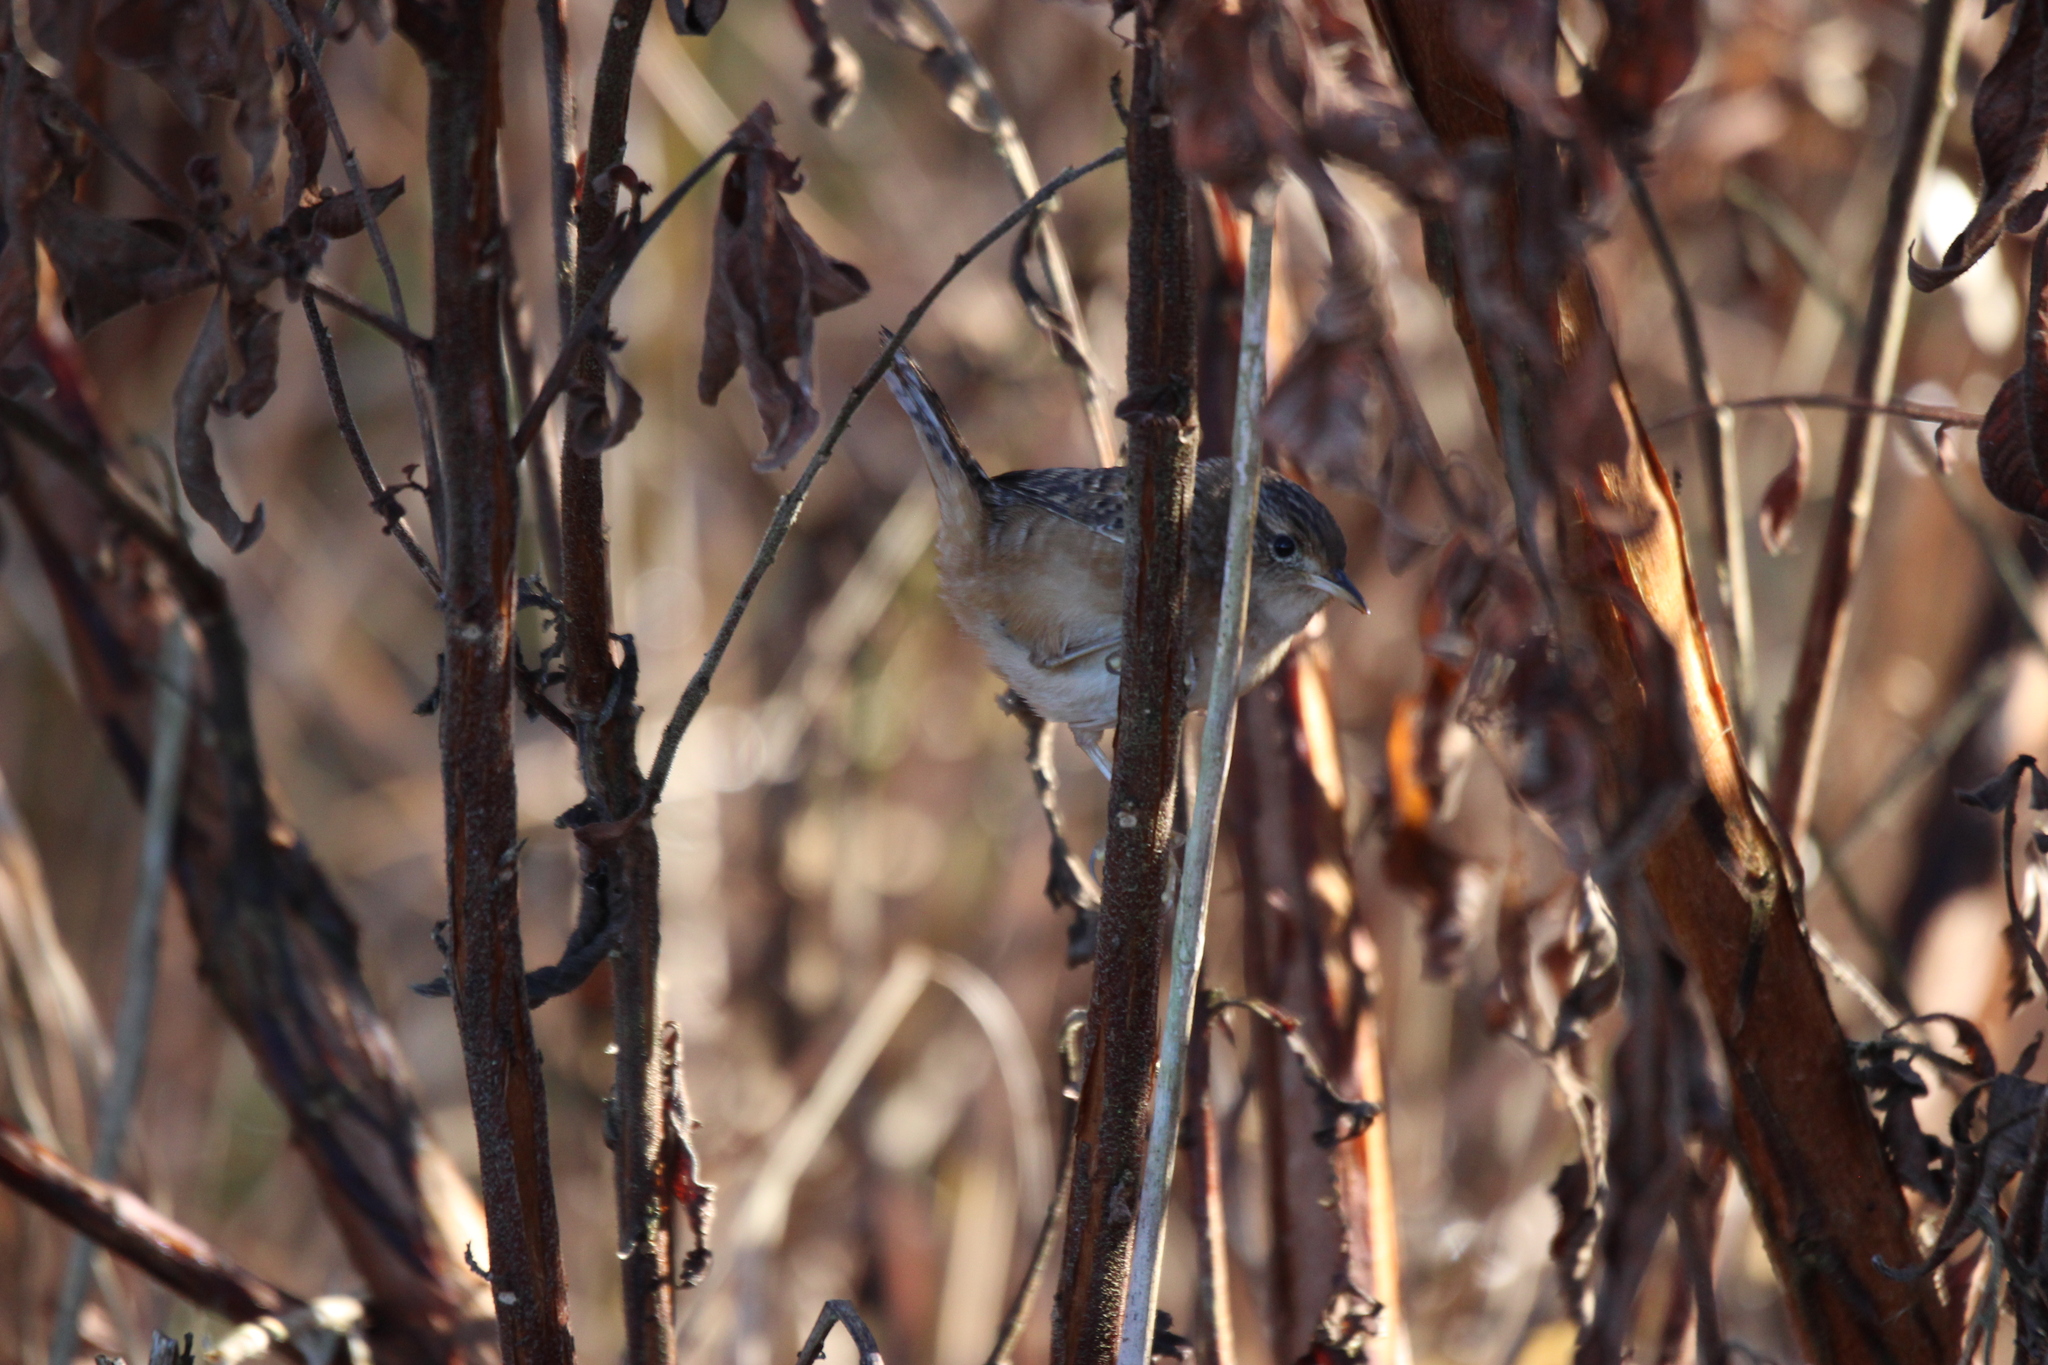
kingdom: Animalia
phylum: Chordata
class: Aves
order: Passeriformes
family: Troglodytidae
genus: Cistothorus
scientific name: Cistothorus platensis
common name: Sedge wren
